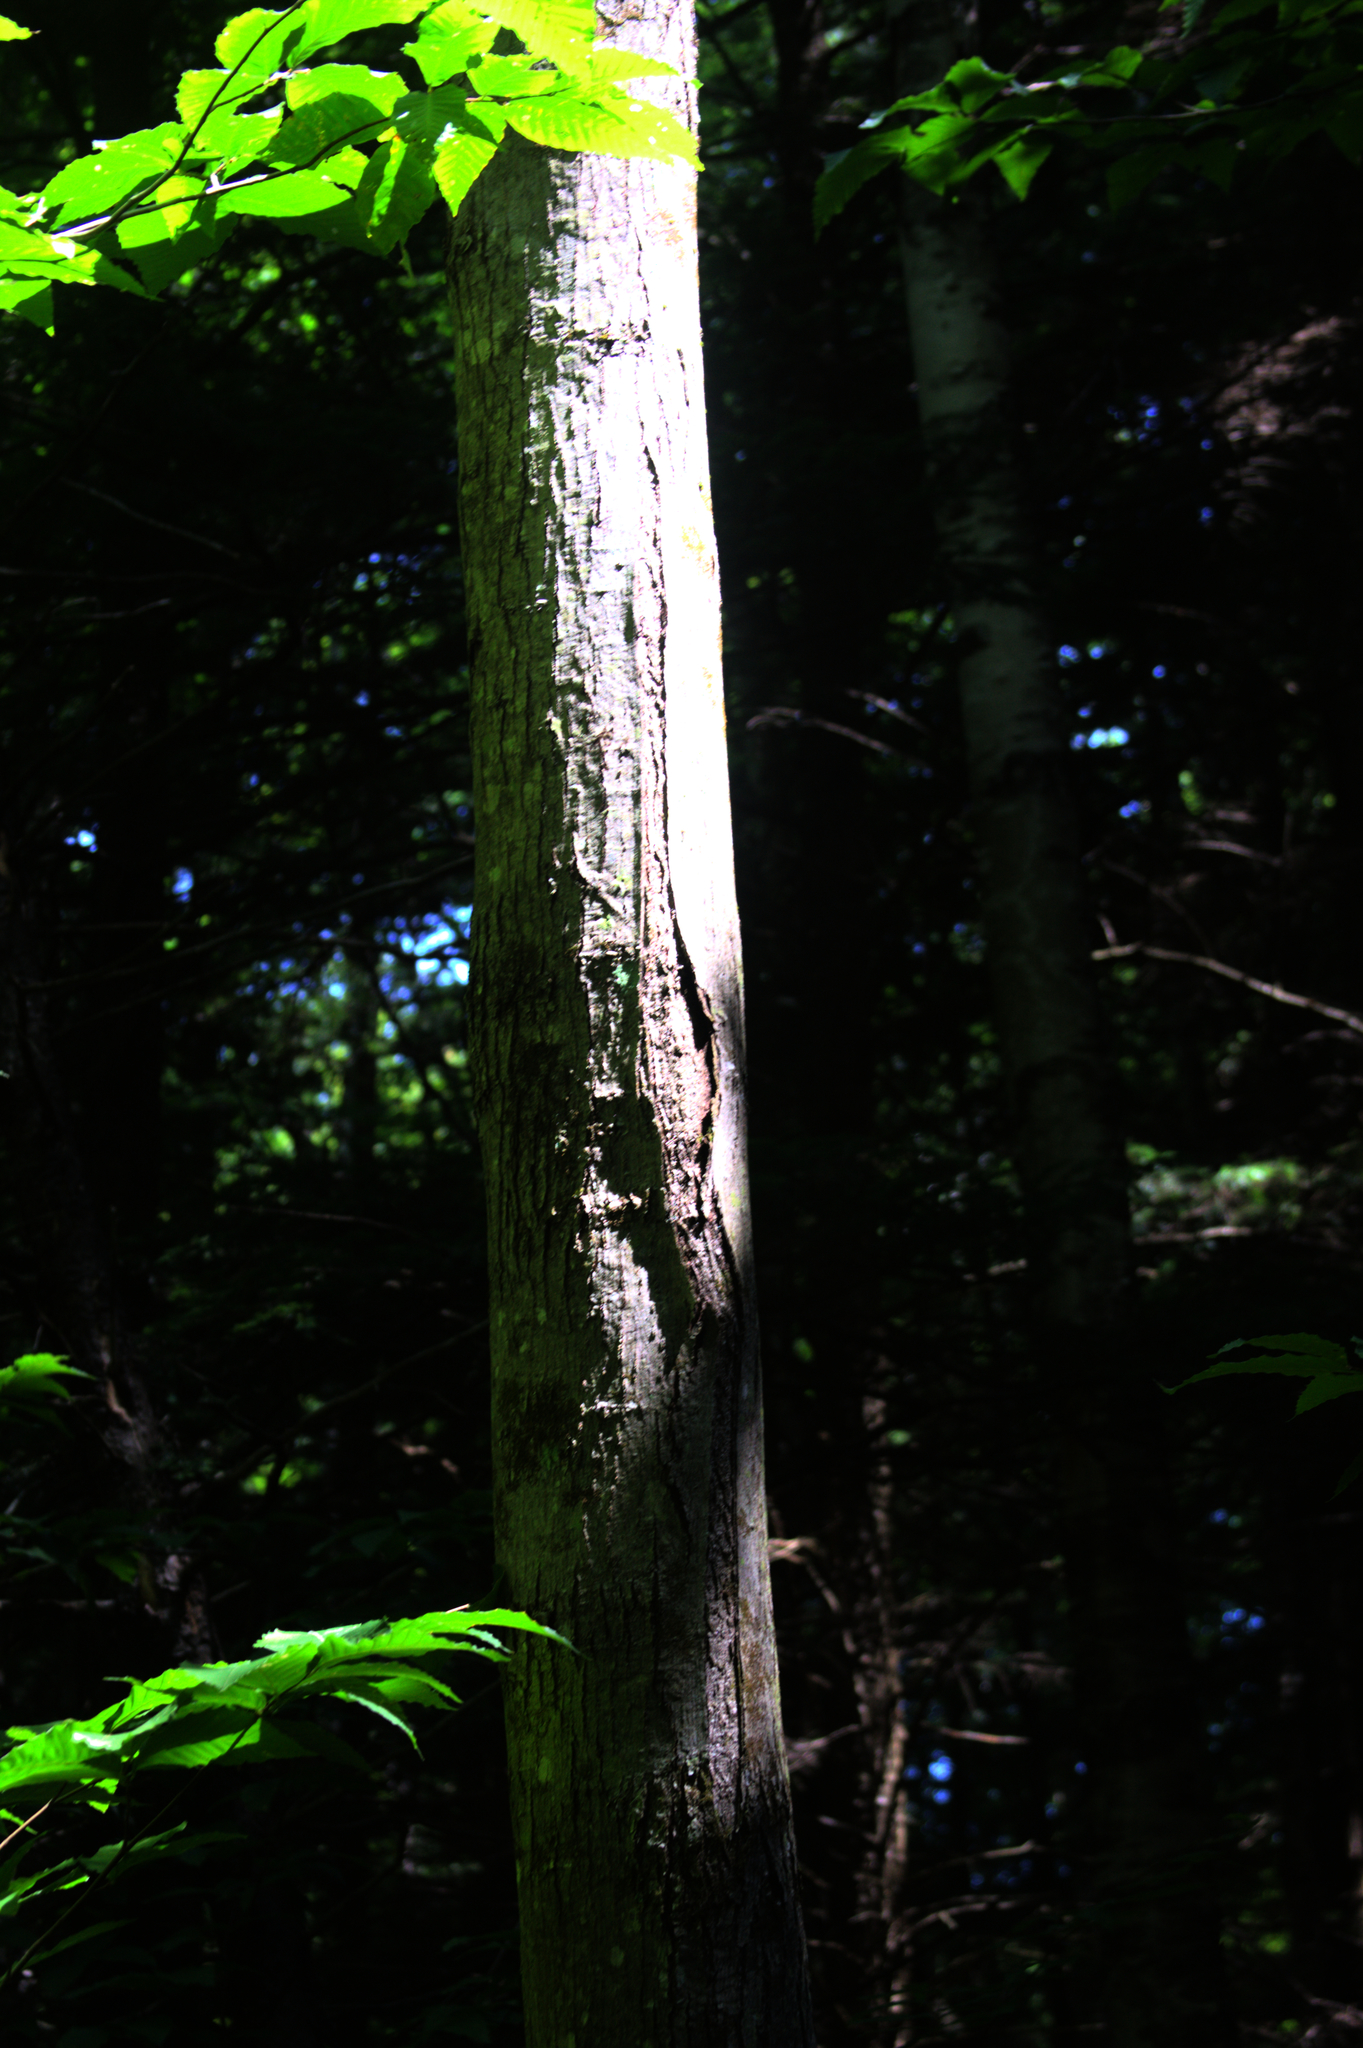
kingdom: Plantae
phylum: Tracheophyta
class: Magnoliopsida
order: Sapindales
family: Sapindaceae
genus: Acer
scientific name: Acer rubrum
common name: Red maple
